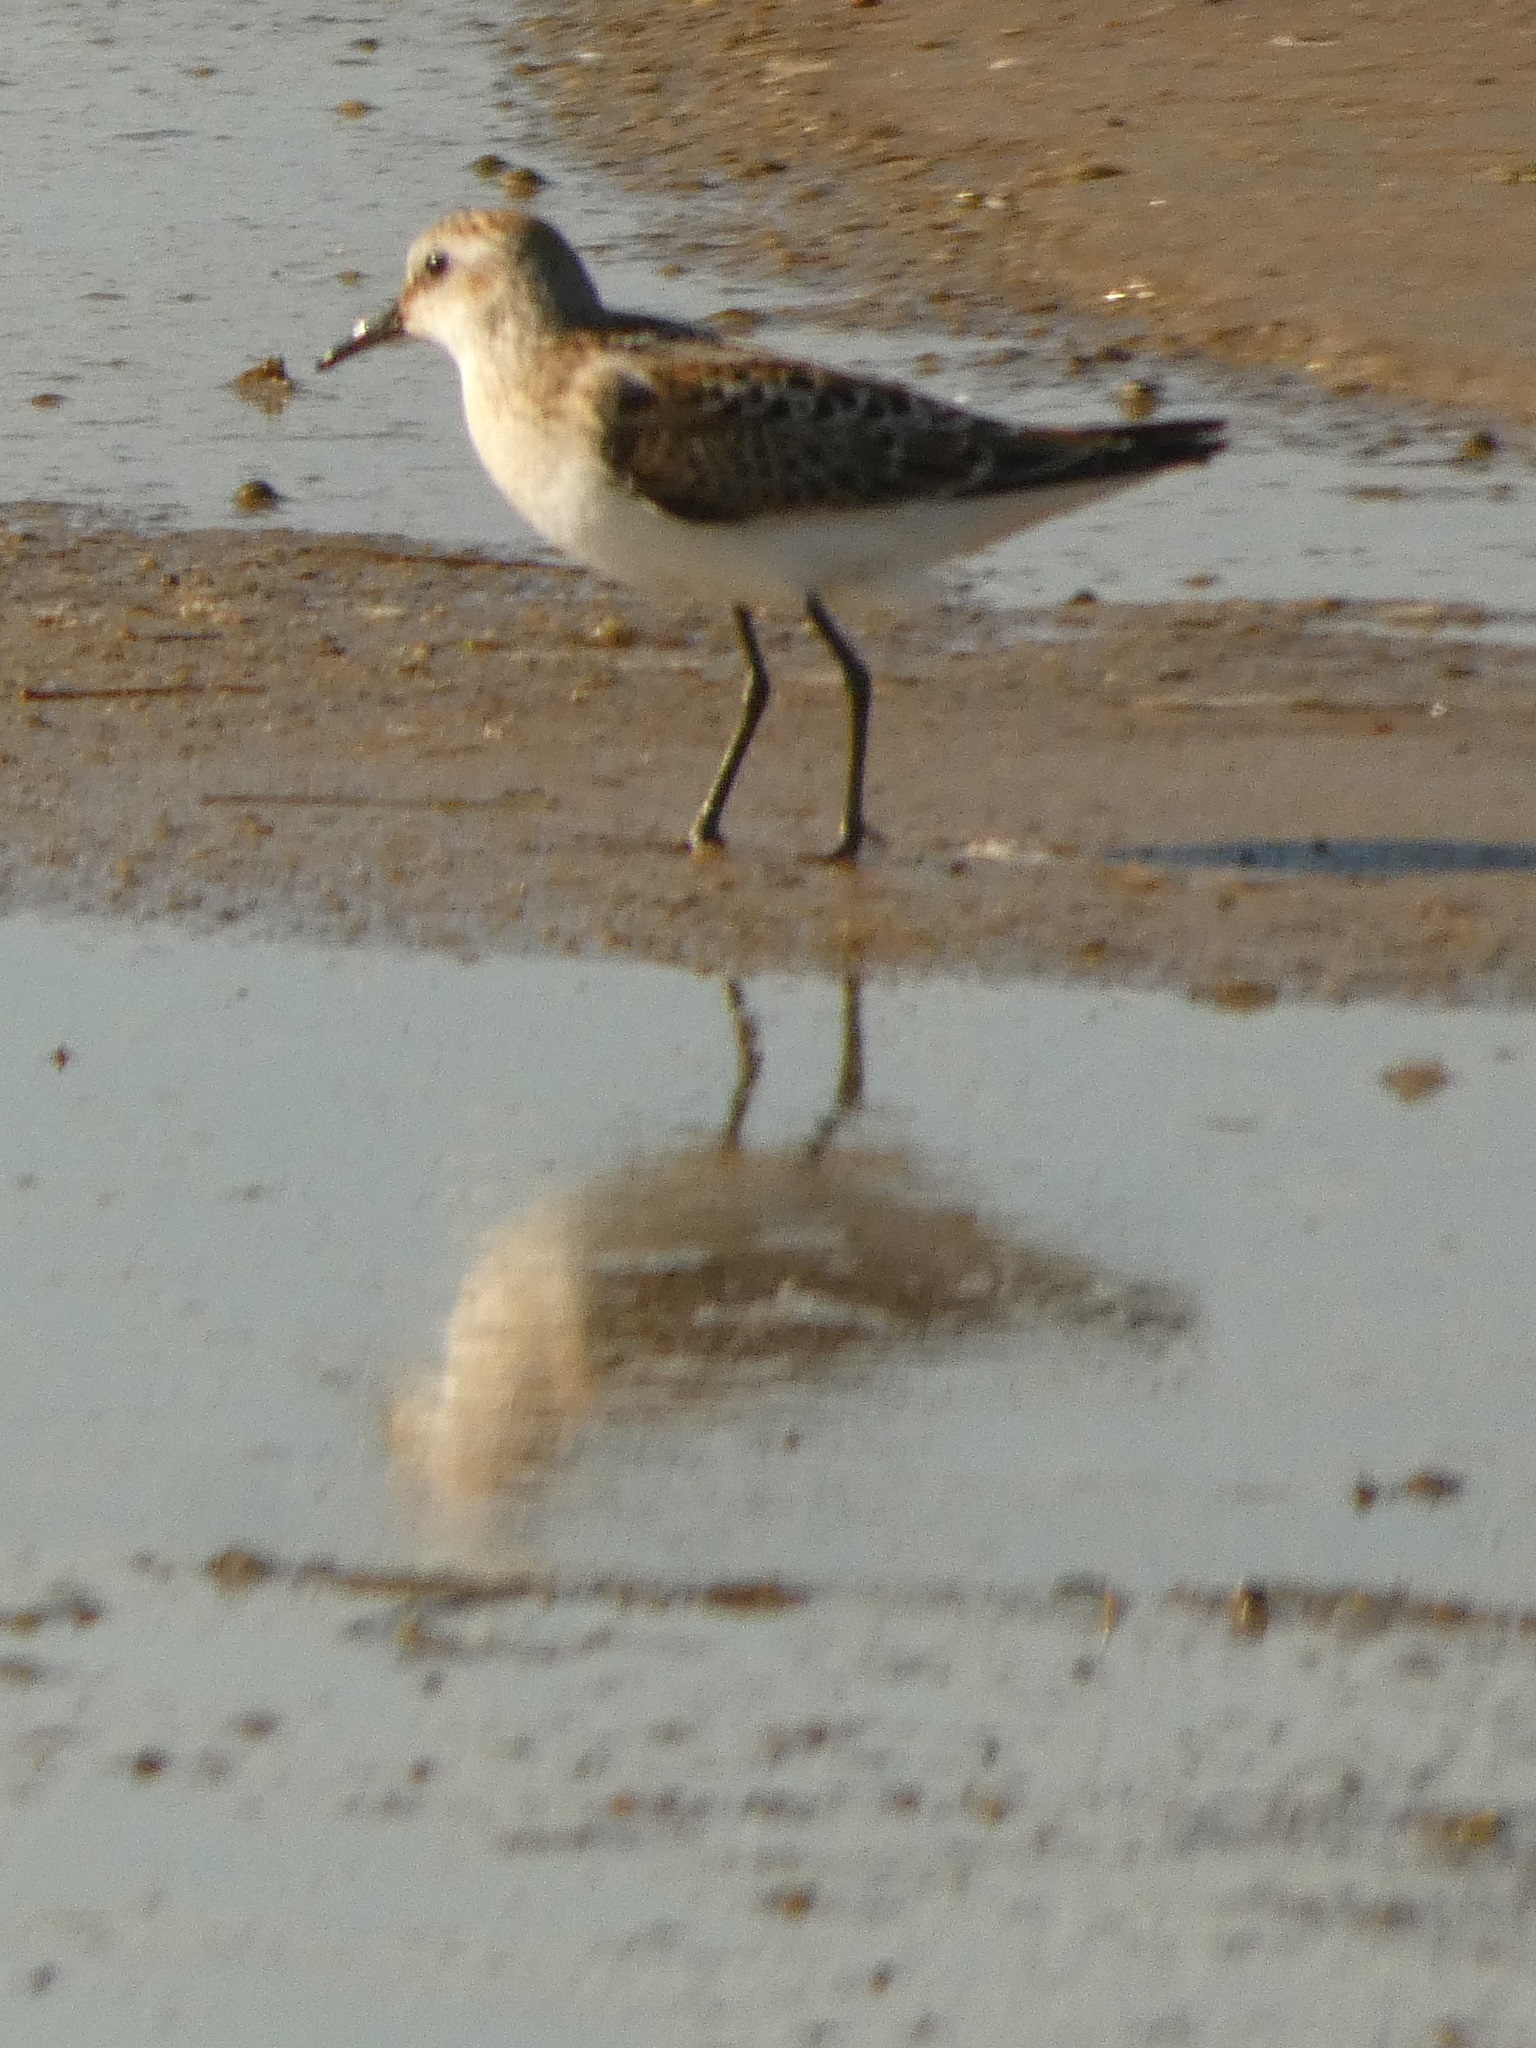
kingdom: Animalia
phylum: Chordata
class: Aves
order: Charadriiformes
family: Scolopacidae
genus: Calidris
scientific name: Calidris minuta
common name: Little stint
